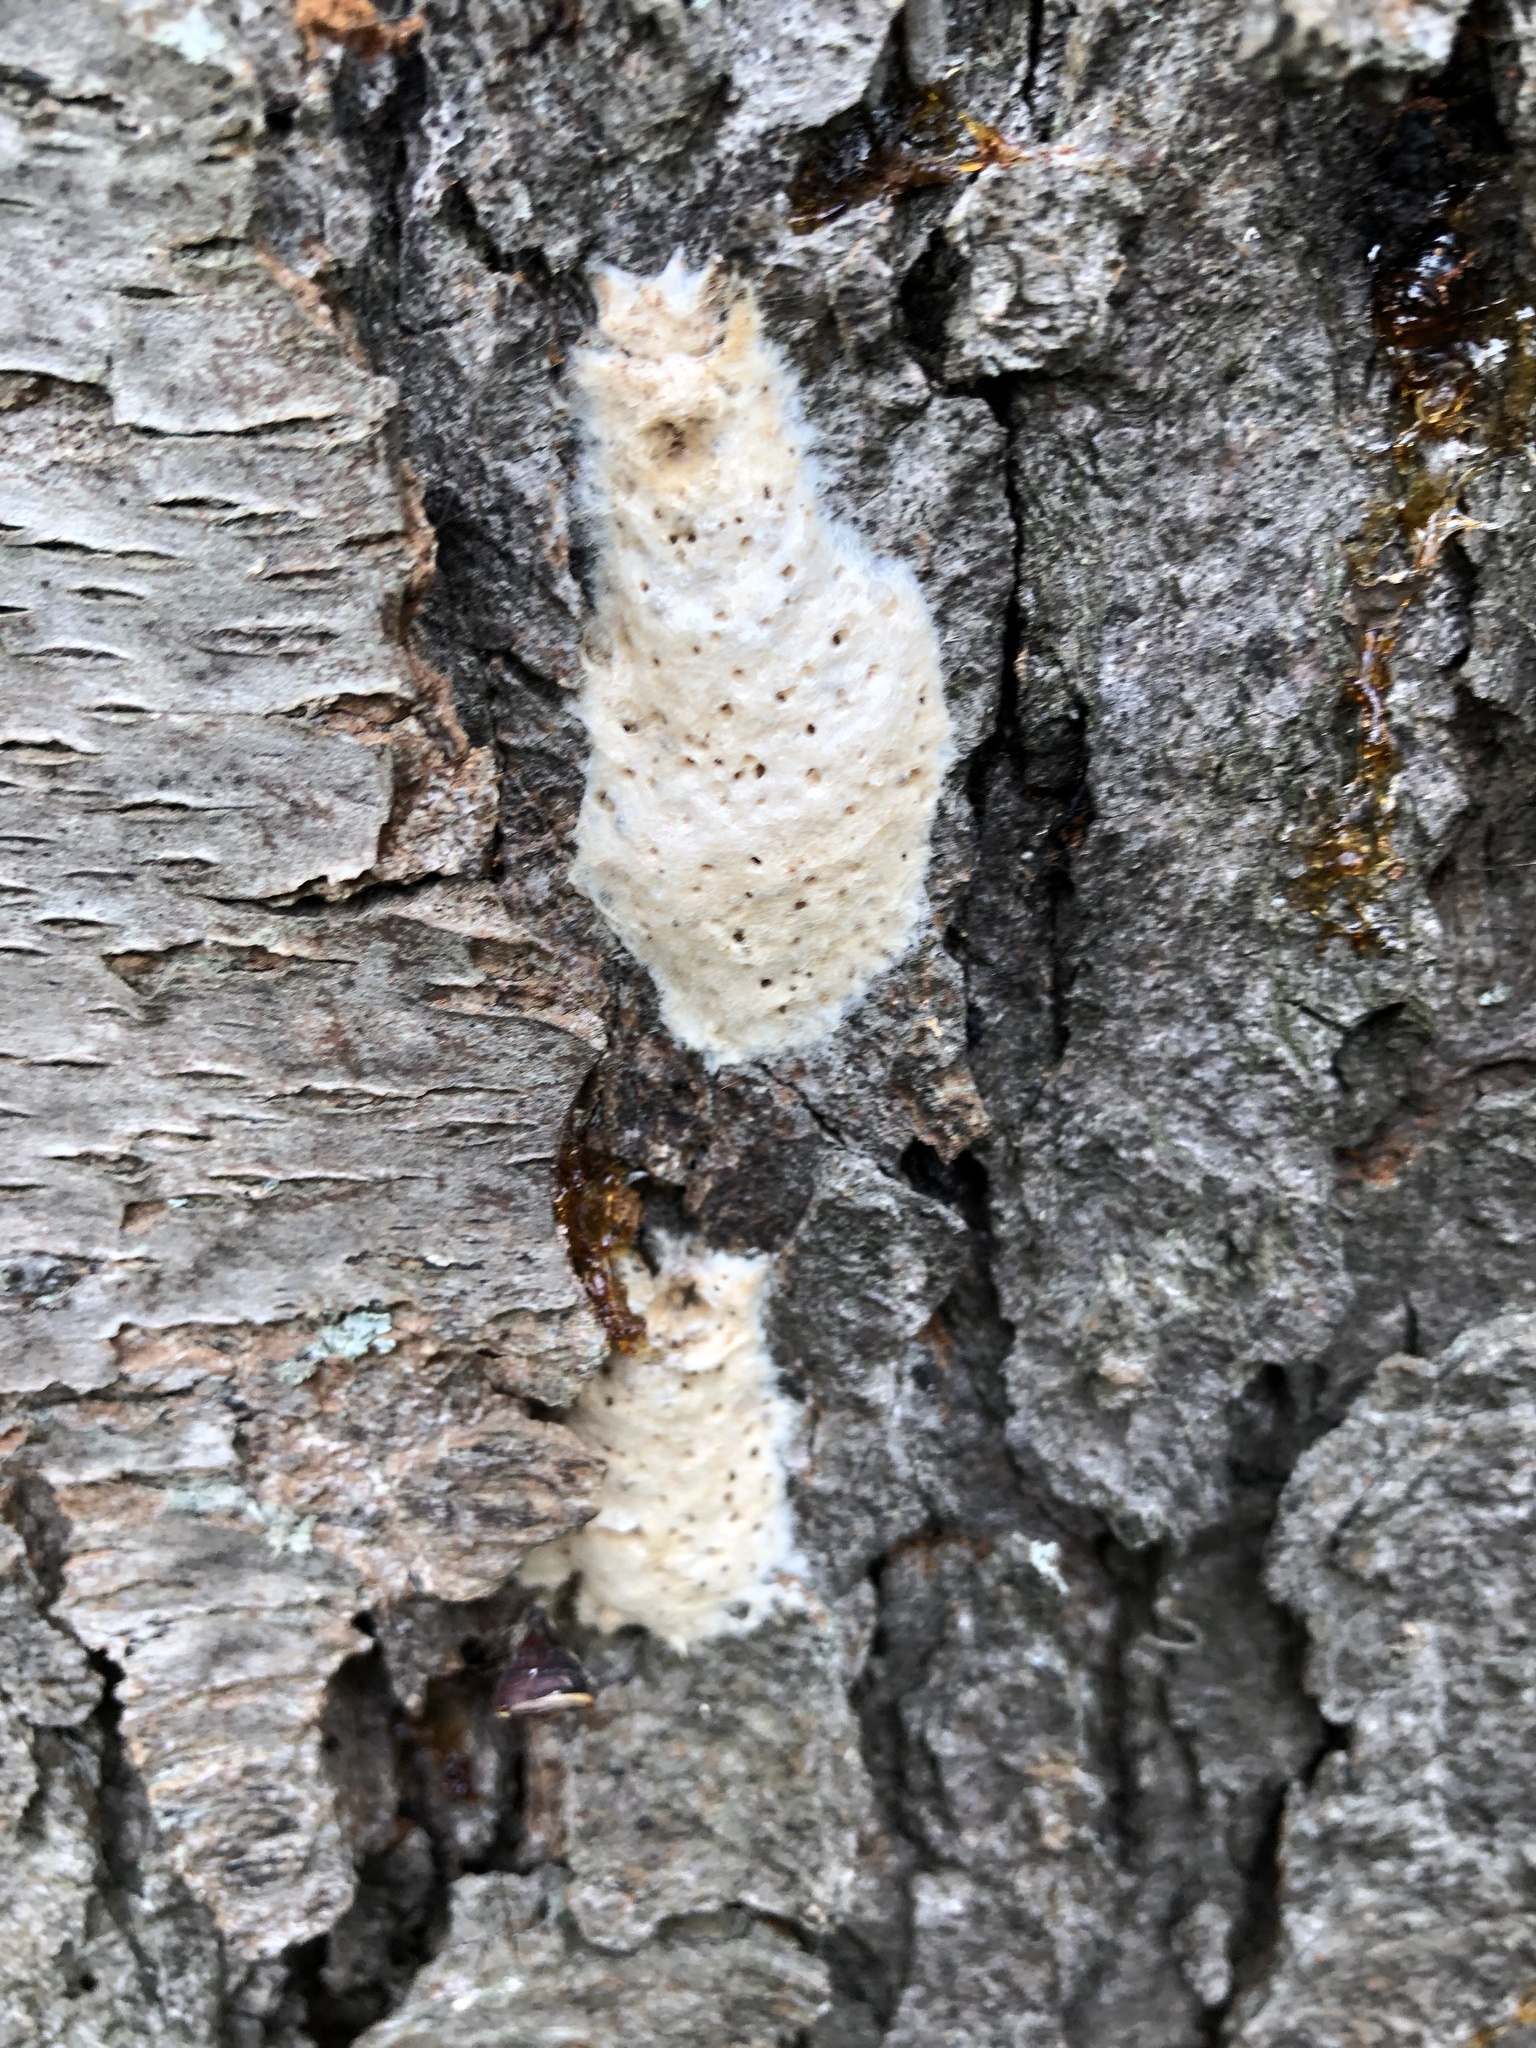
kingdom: Animalia
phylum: Arthropoda
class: Insecta
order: Lepidoptera
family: Erebidae
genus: Lymantria
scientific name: Lymantria dispar
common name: Gypsy moth
